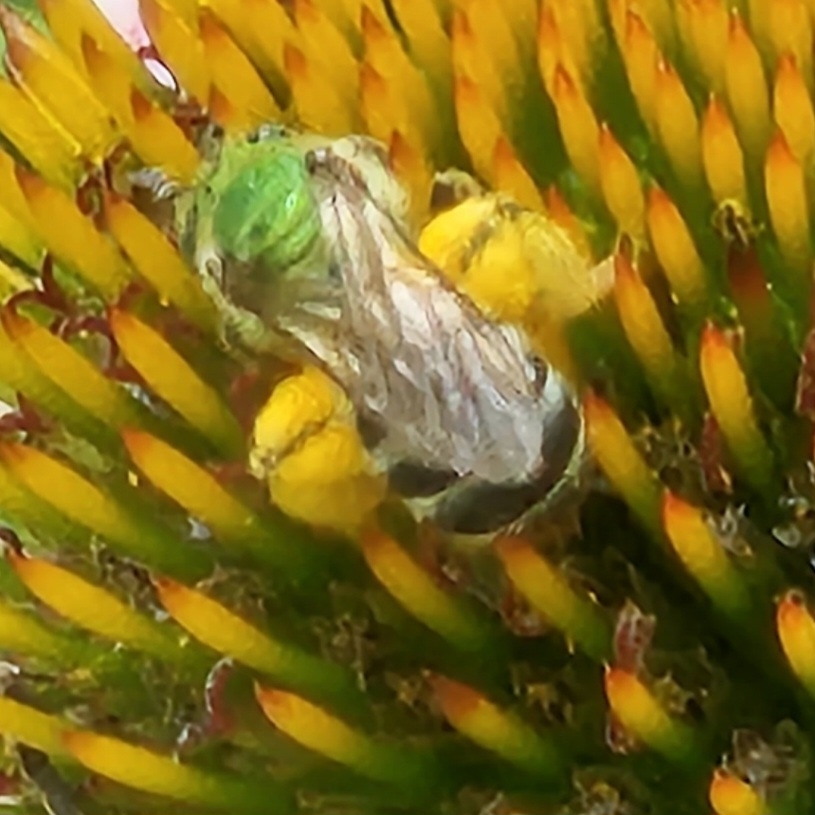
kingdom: Animalia
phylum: Arthropoda
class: Insecta
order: Hymenoptera
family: Halictidae
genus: Agapostemon
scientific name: Agapostemon virescens
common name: Bicolored striped sweat bee
